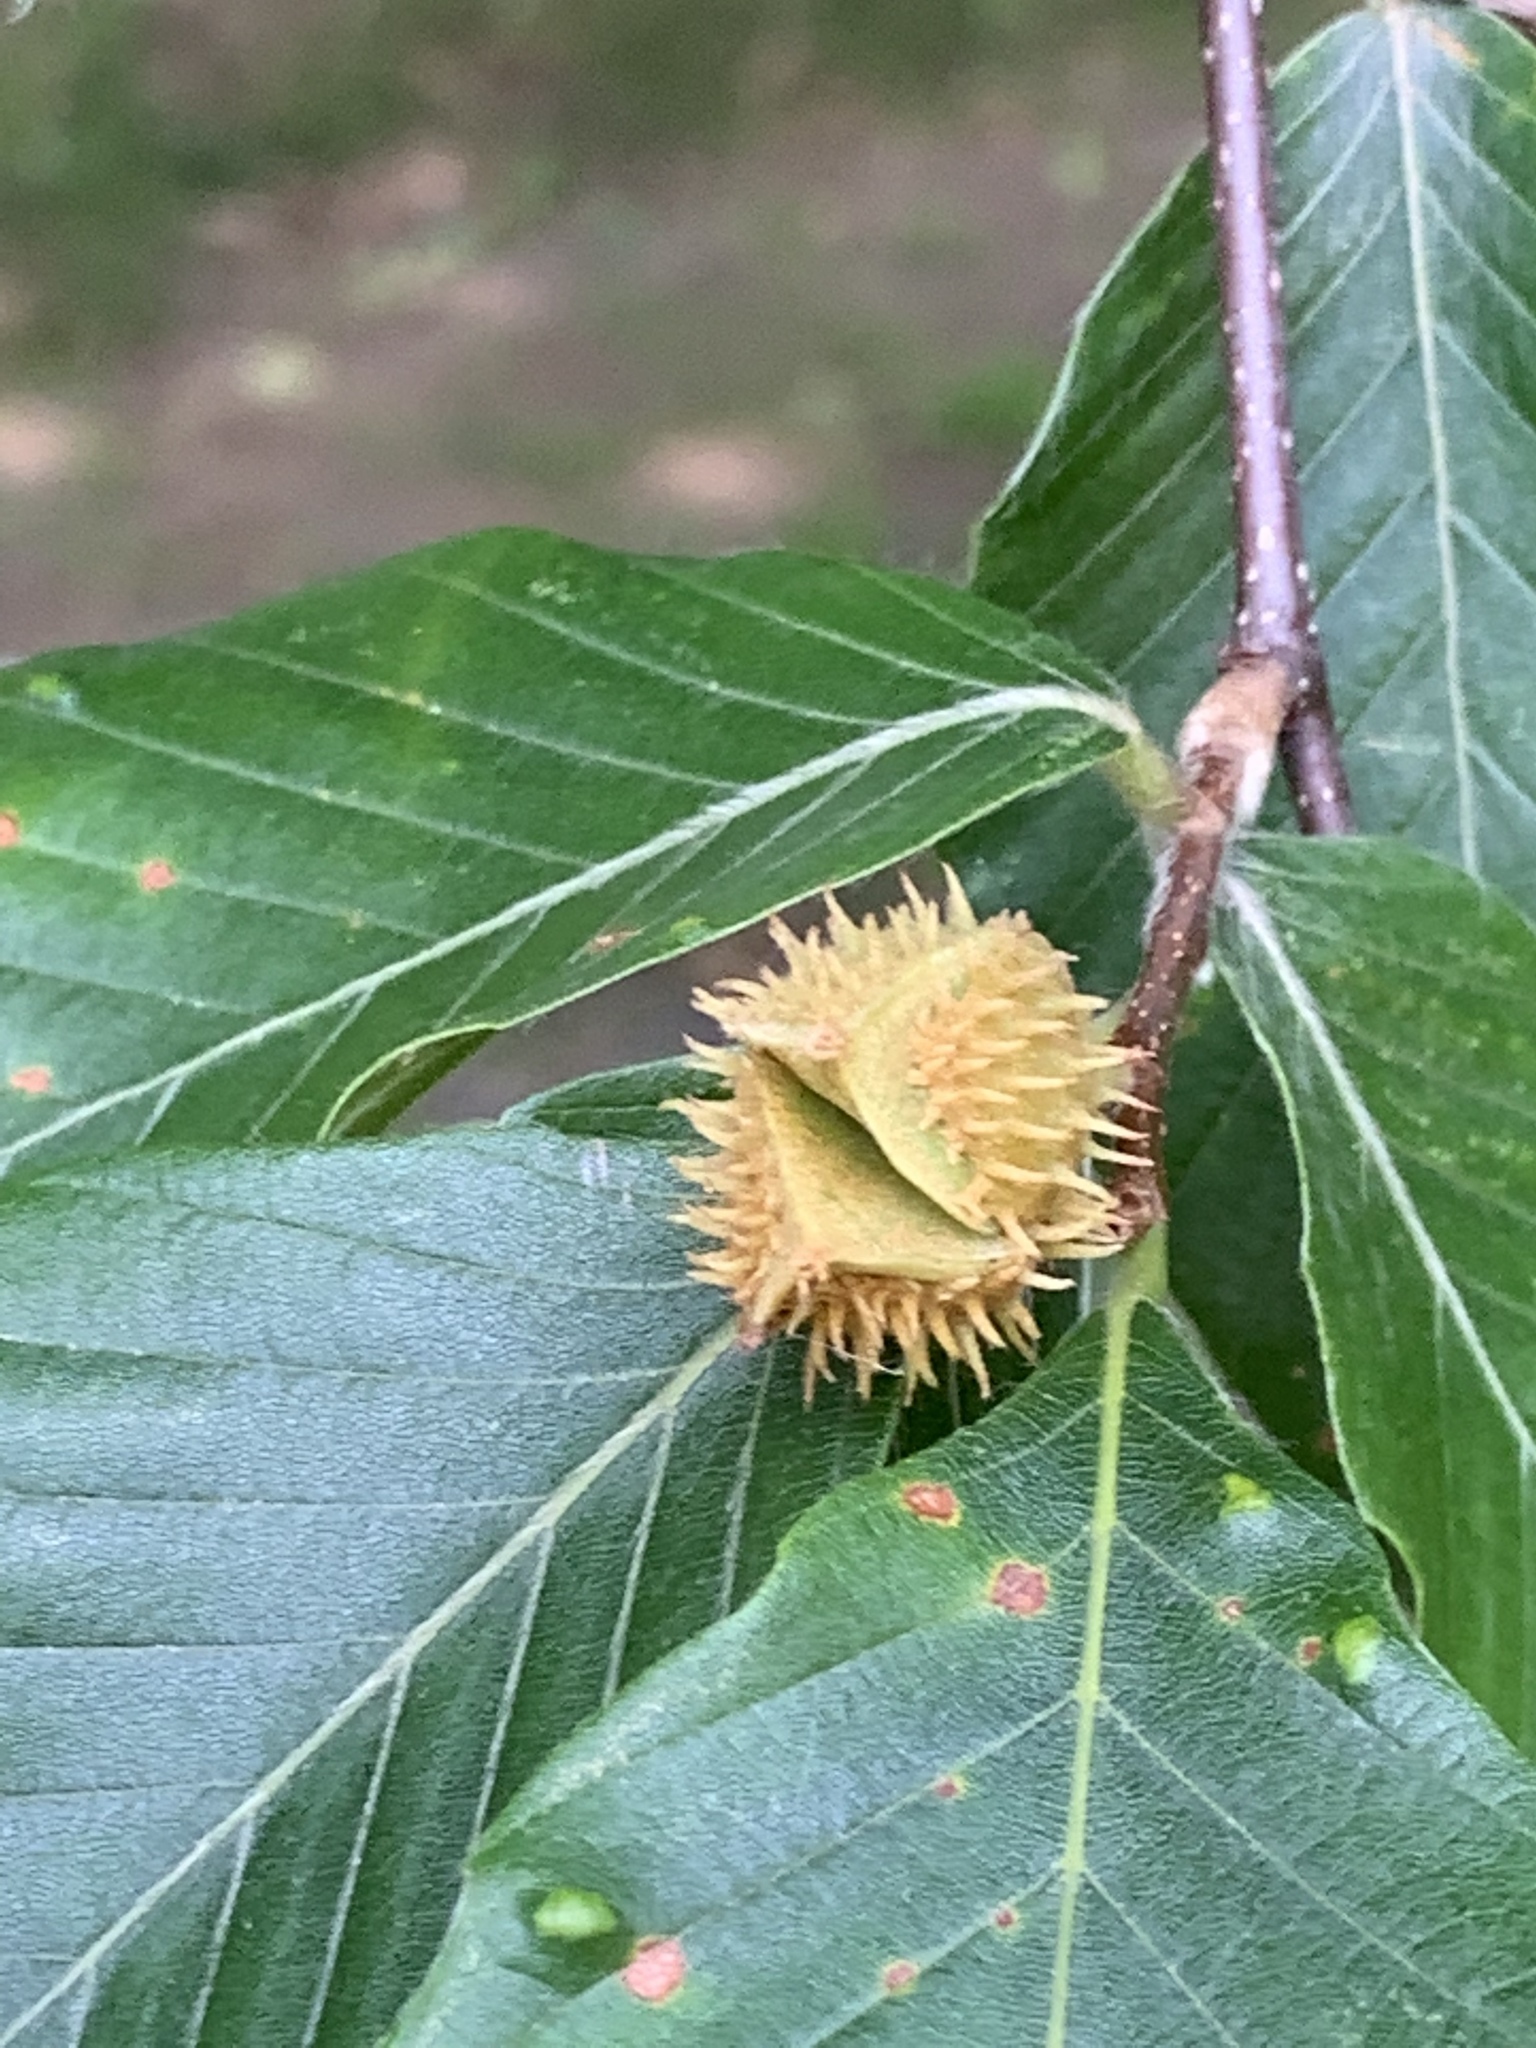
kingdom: Plantae
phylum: Tracheophyta
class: Magnoliopsida
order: Fagales
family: Fagaceae
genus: Fagus
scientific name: Fagus grandifolia
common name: American beech
